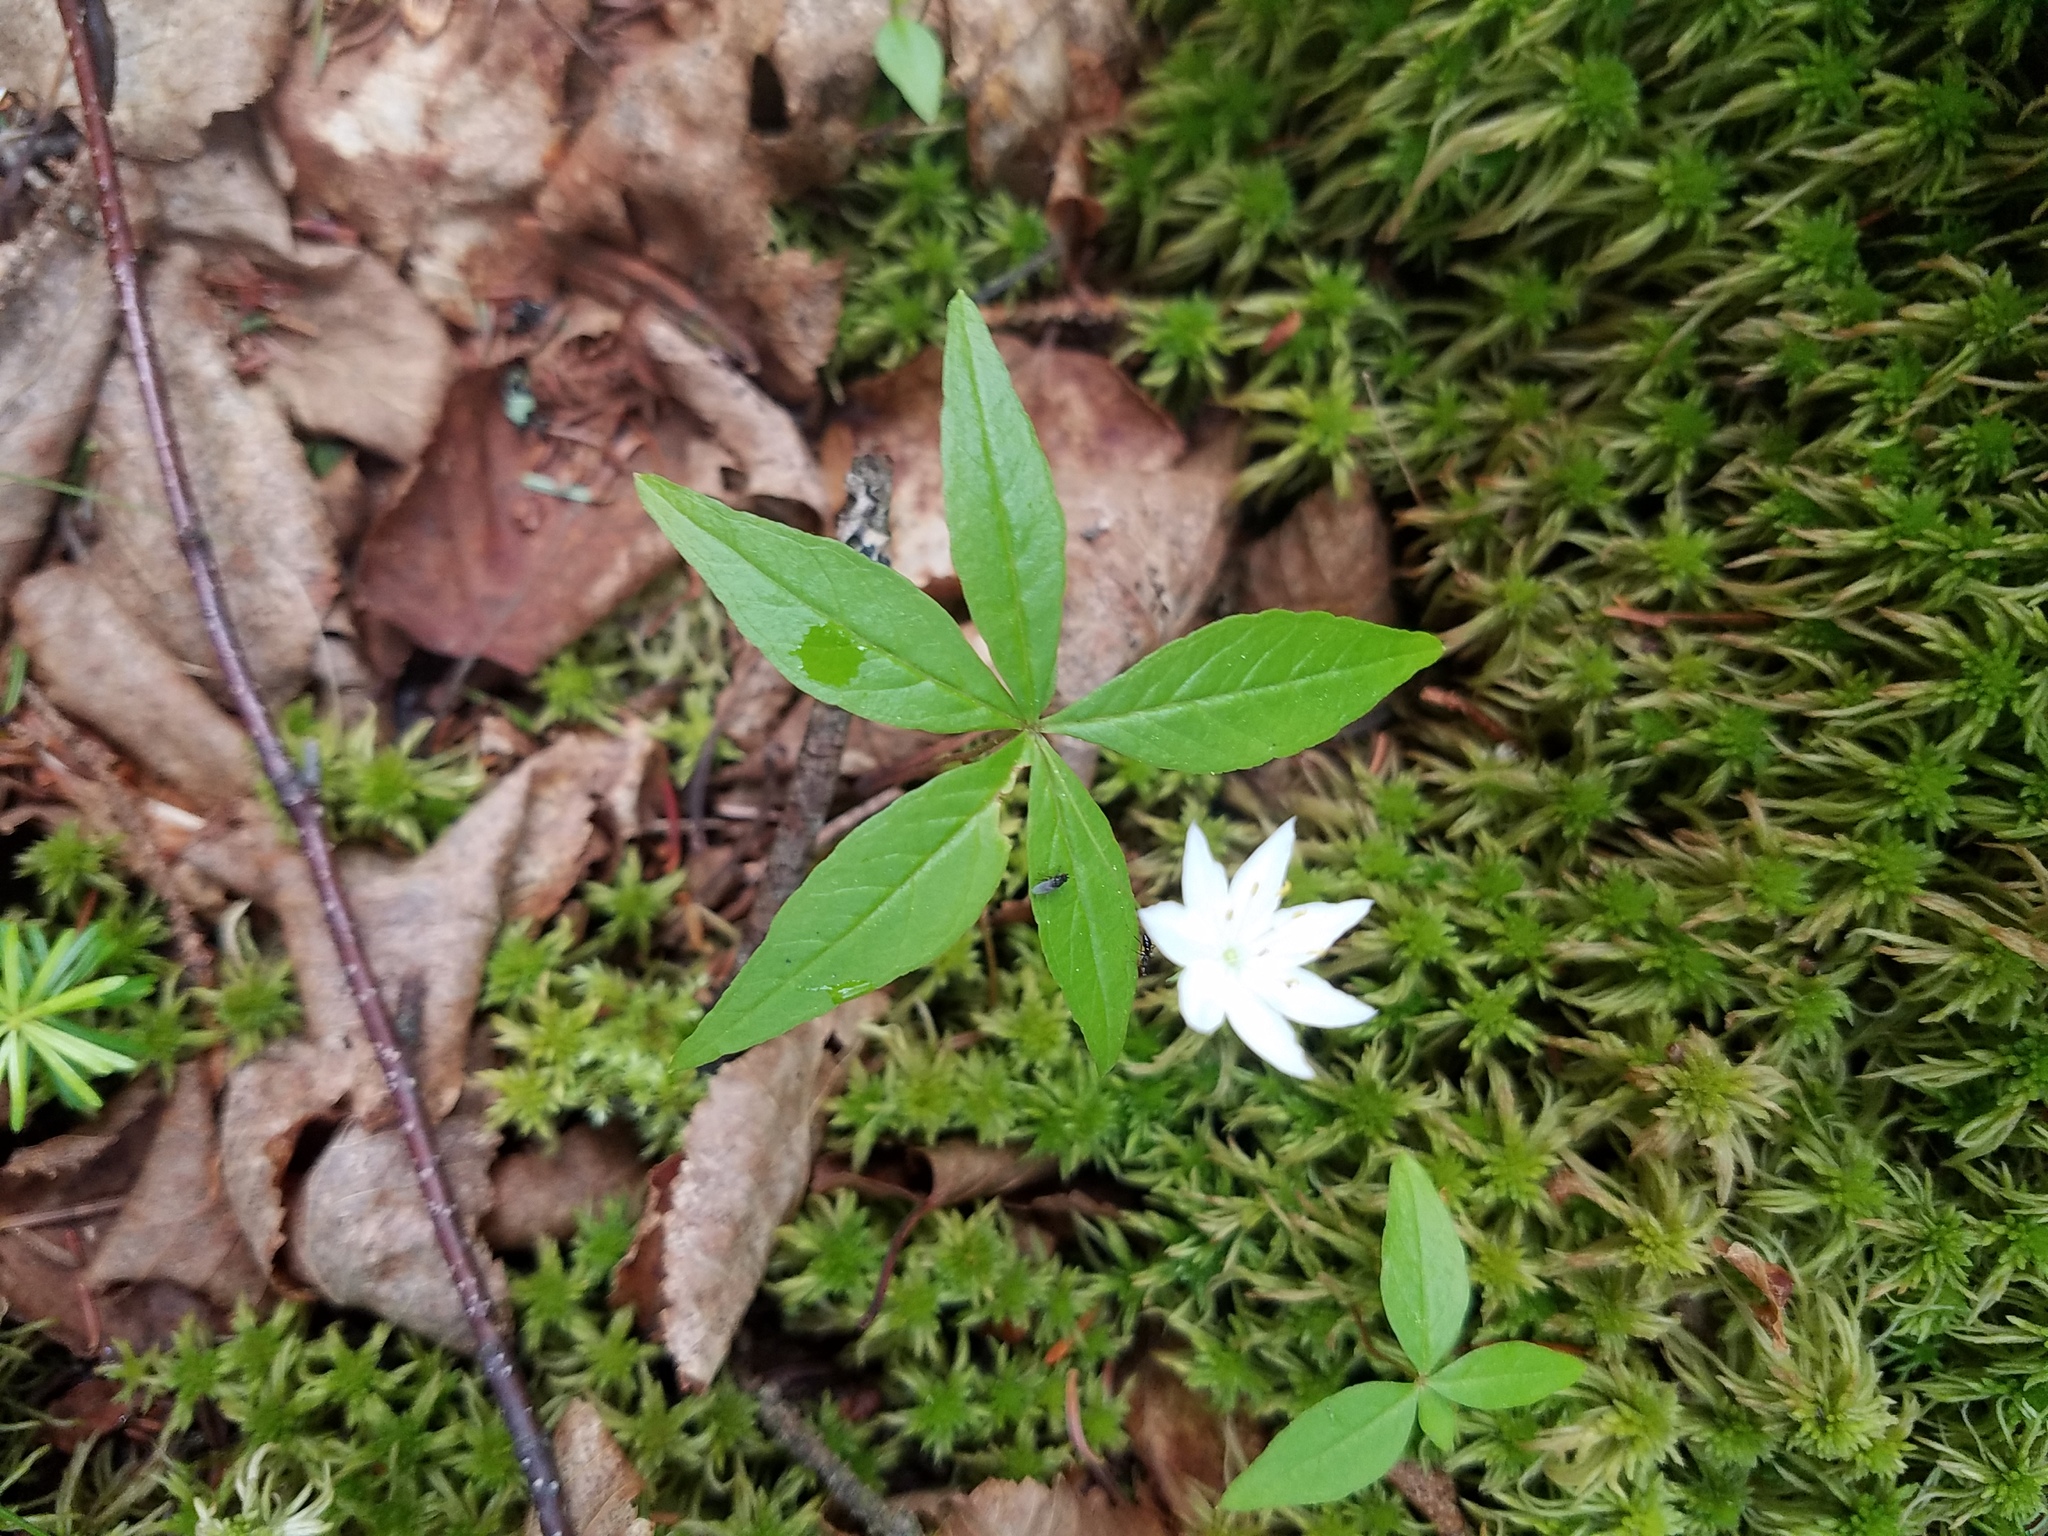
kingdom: Plantae
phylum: Tracheophyta
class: Magnoliopsida
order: Ericales
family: Primulaceae
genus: Lysimachia
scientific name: Lysimachia borealis
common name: American starflower
